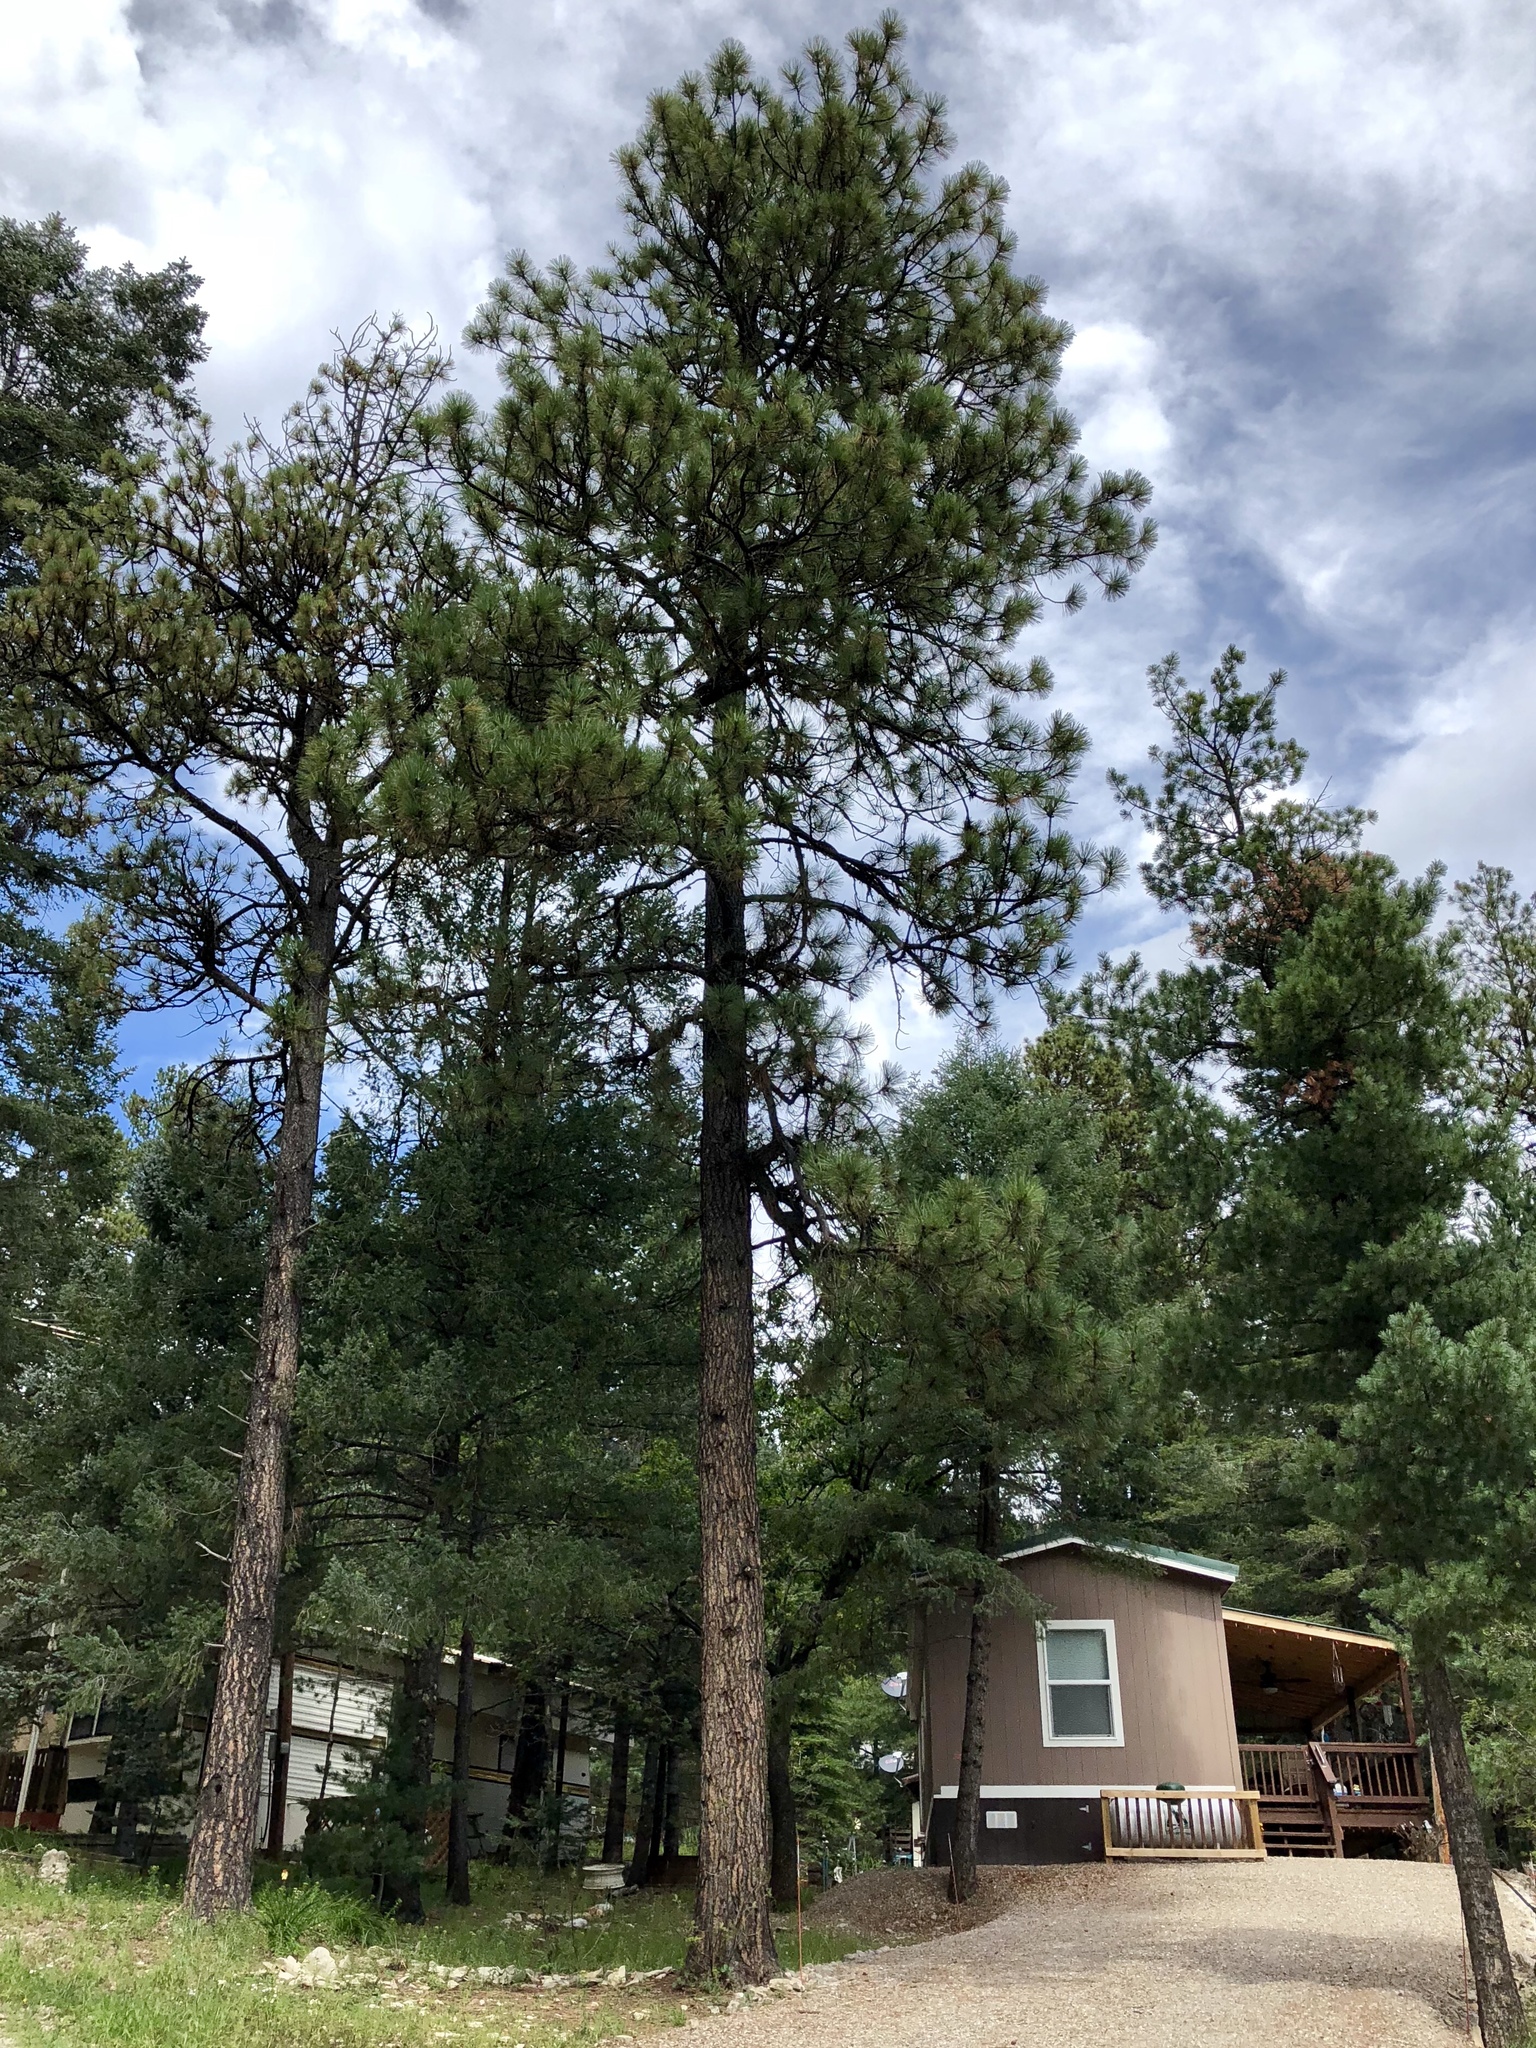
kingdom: Plantae
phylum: Tracheophyta
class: Pinopsida
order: Pinales
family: Pinaceae
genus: Pinus
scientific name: Pinus ponderosa
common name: Western yellow-pine
